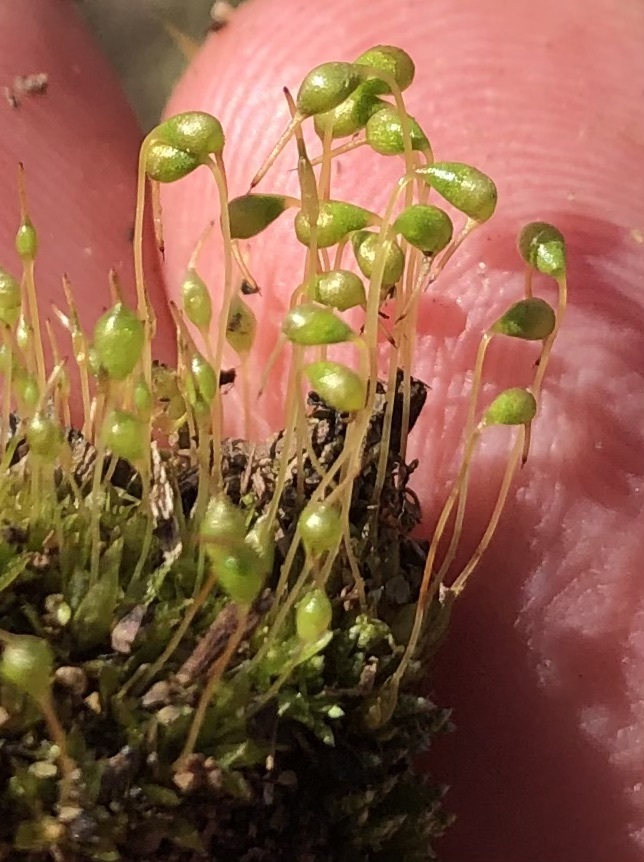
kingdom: Plantae
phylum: Bryophyta
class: Bryopsida
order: Funariales
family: Funariaceae
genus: Funaria
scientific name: Funaria hygrometrica
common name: Common cord moss
